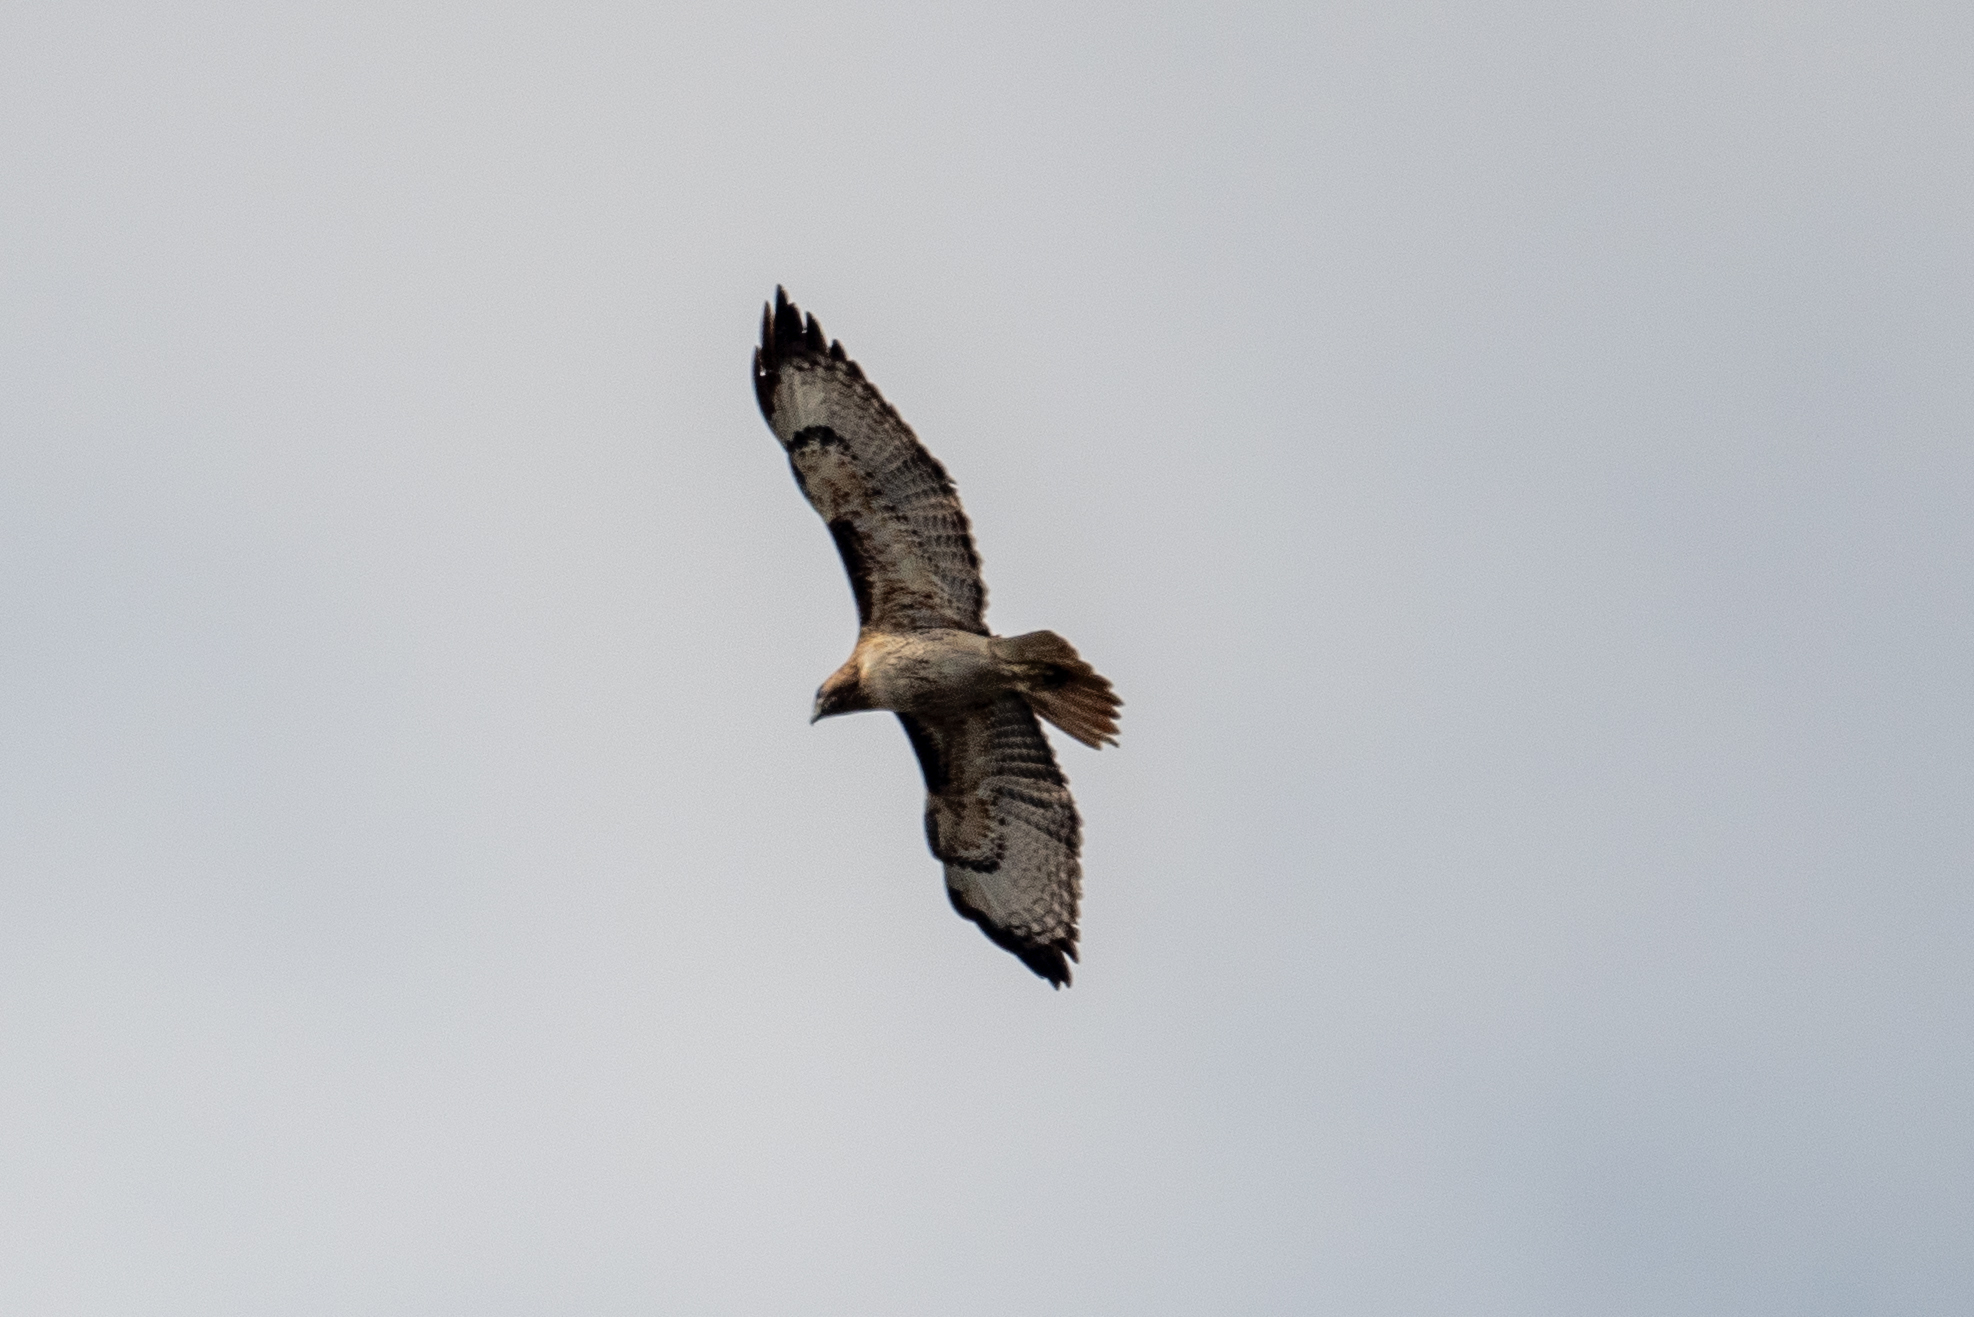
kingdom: Animalia
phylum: Chordata
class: Aves
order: Accipitriformes
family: Accipitridae
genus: Buteo
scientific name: Buteo jamaicensis
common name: Red-tailed hawk
